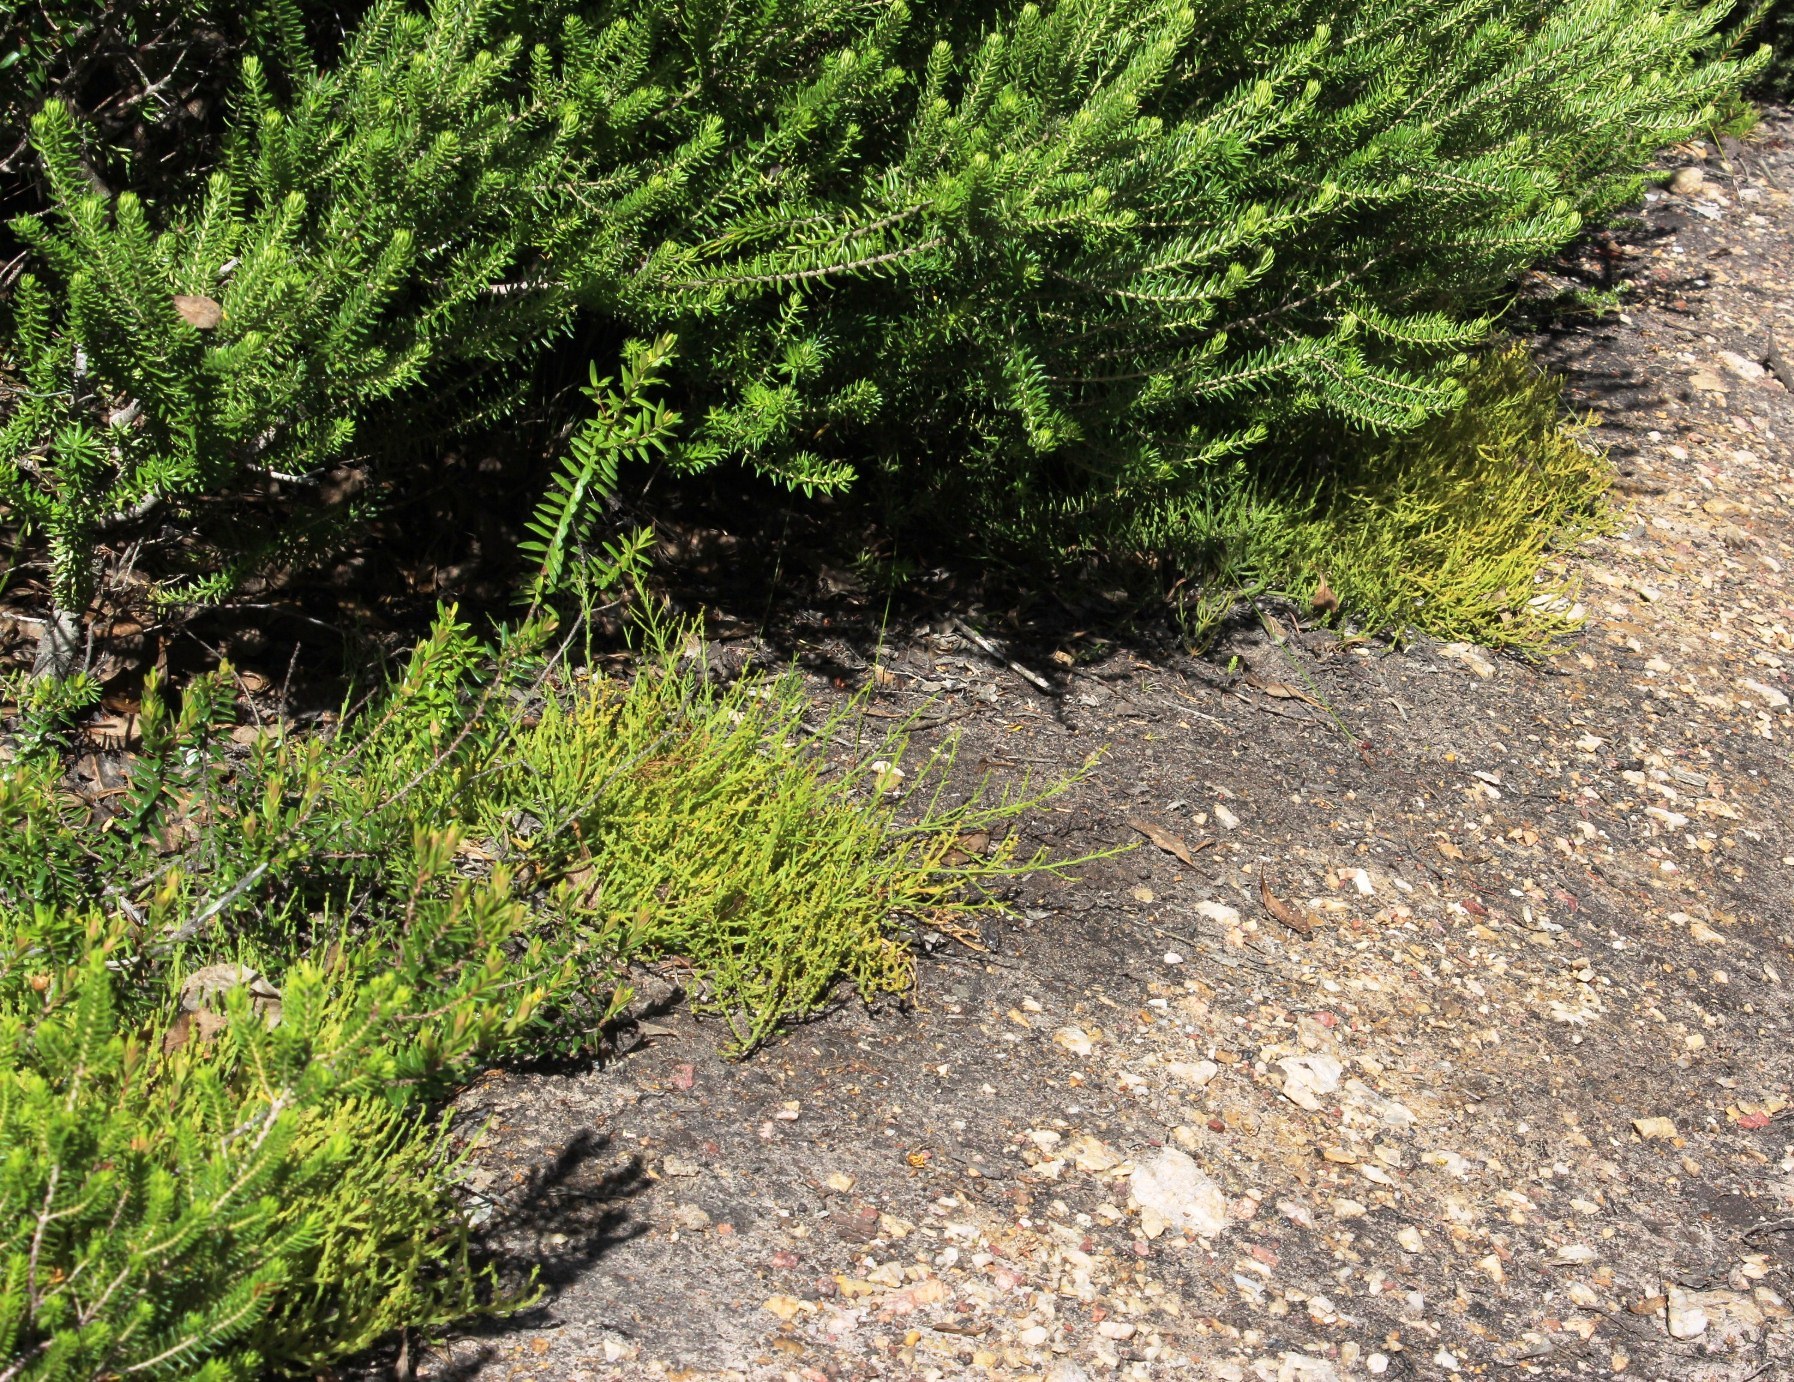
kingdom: Plantae
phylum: Tracheophyta
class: Magnoliopsida
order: Santalales
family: Thesiaceae
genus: Thesium
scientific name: Thesium fragile
